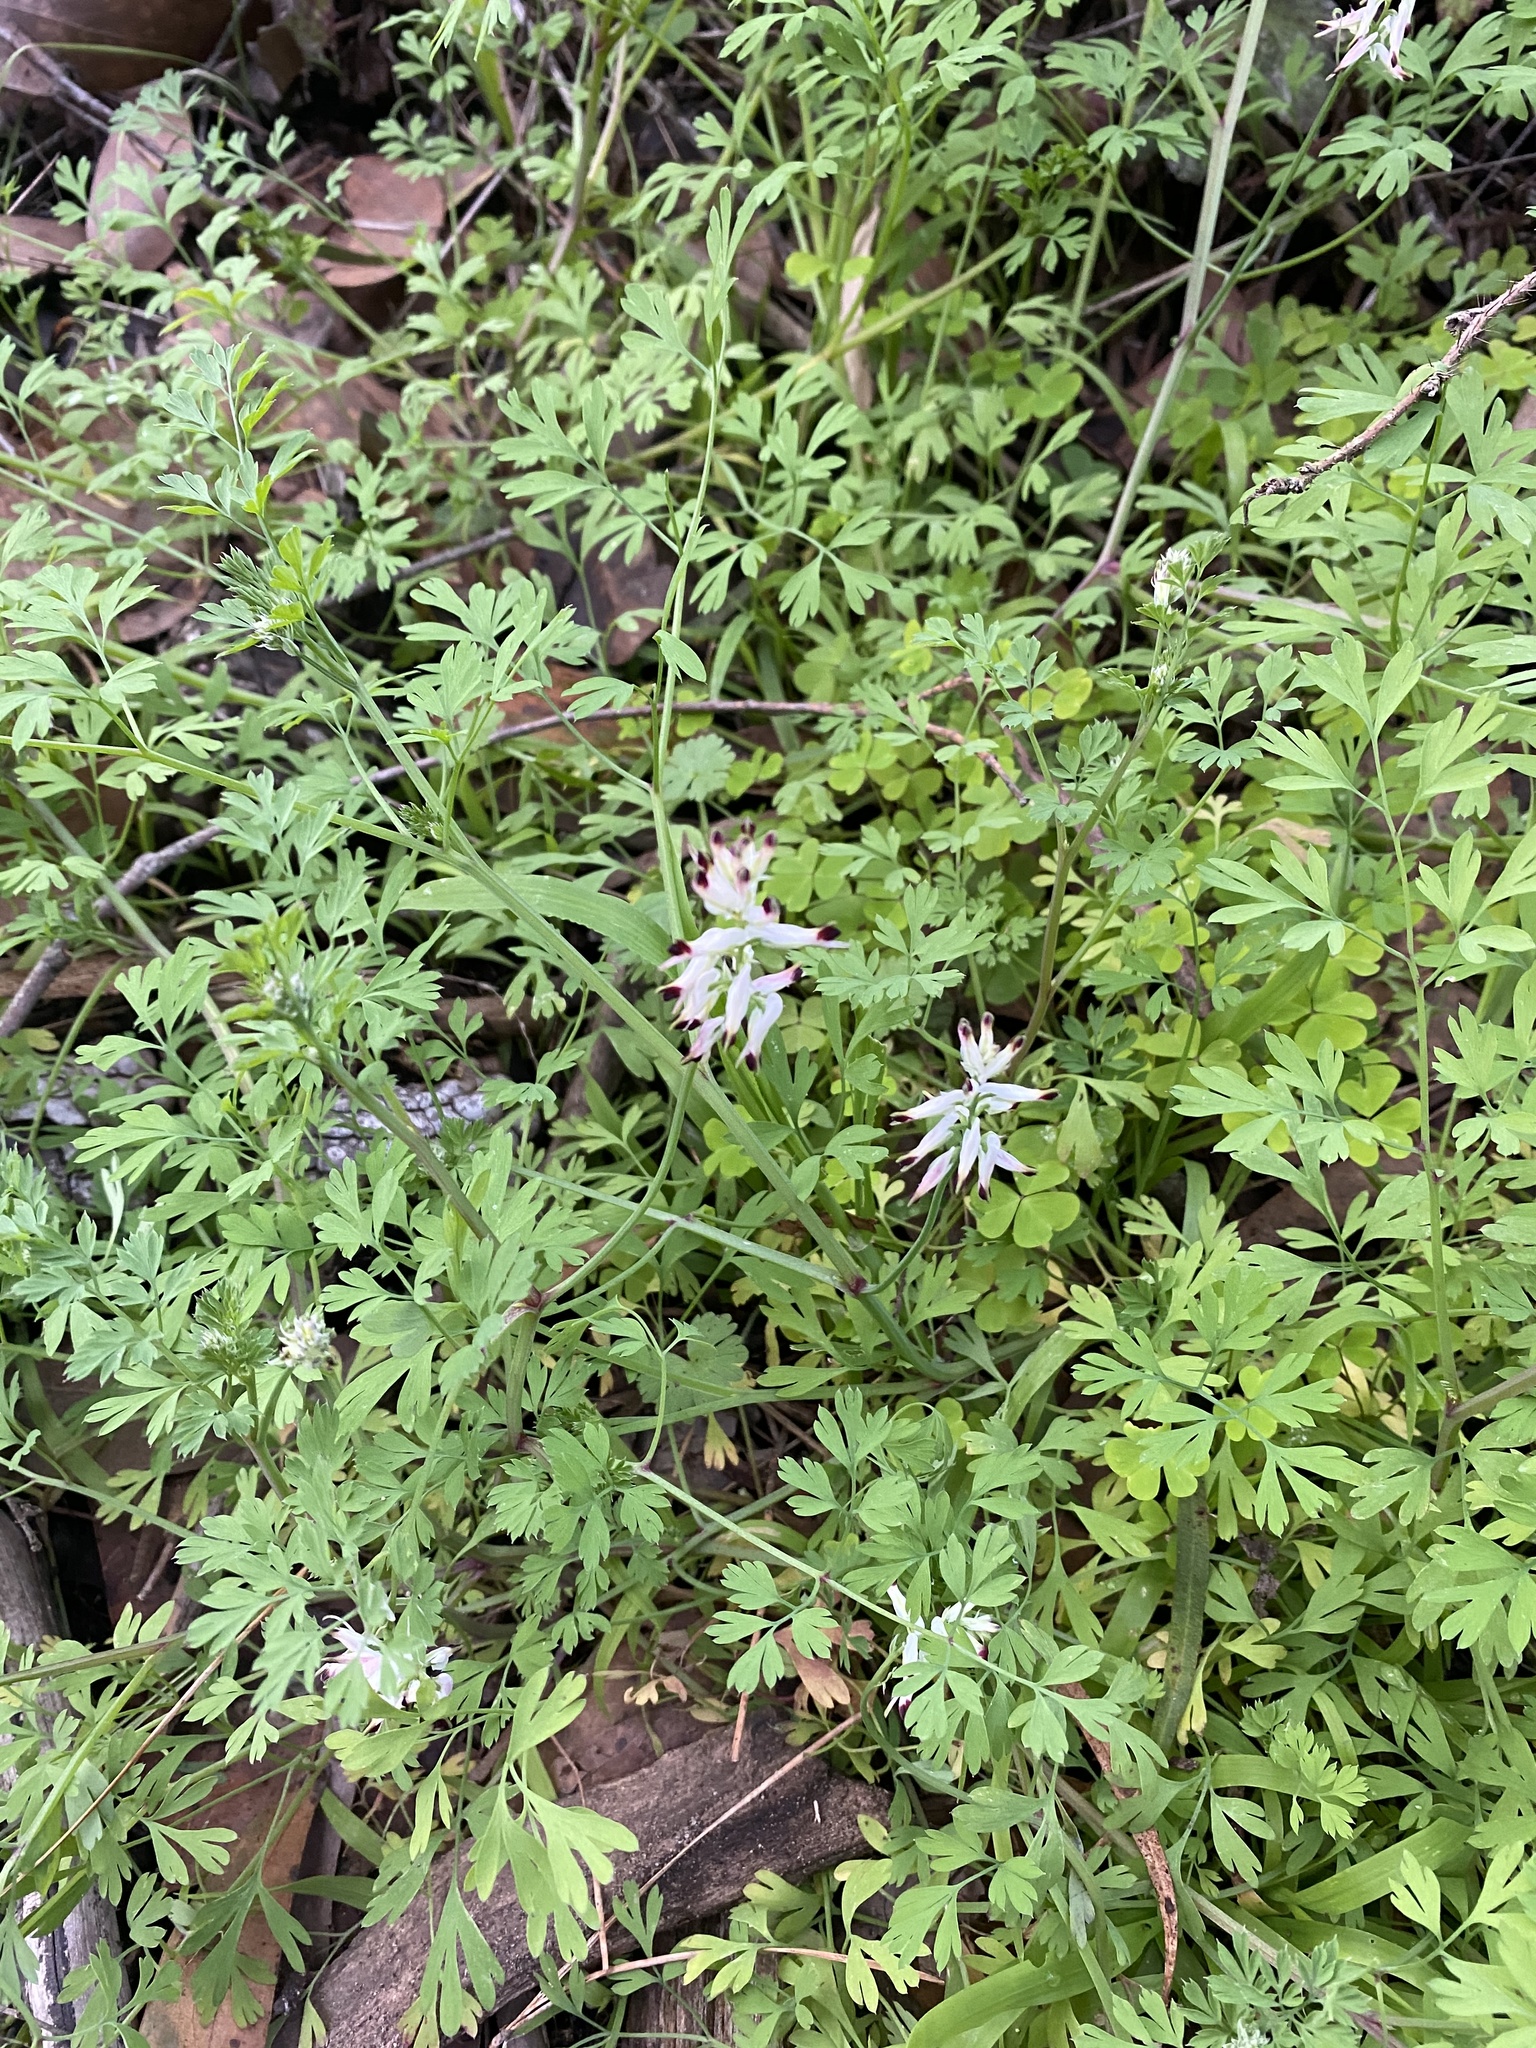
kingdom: Plantae
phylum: Tracheophyta
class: Magnoliopsida
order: Ranunculales
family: Papaveraceae
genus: Fumaria
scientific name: Fumaria capreolata
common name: White ramping-fumitory
